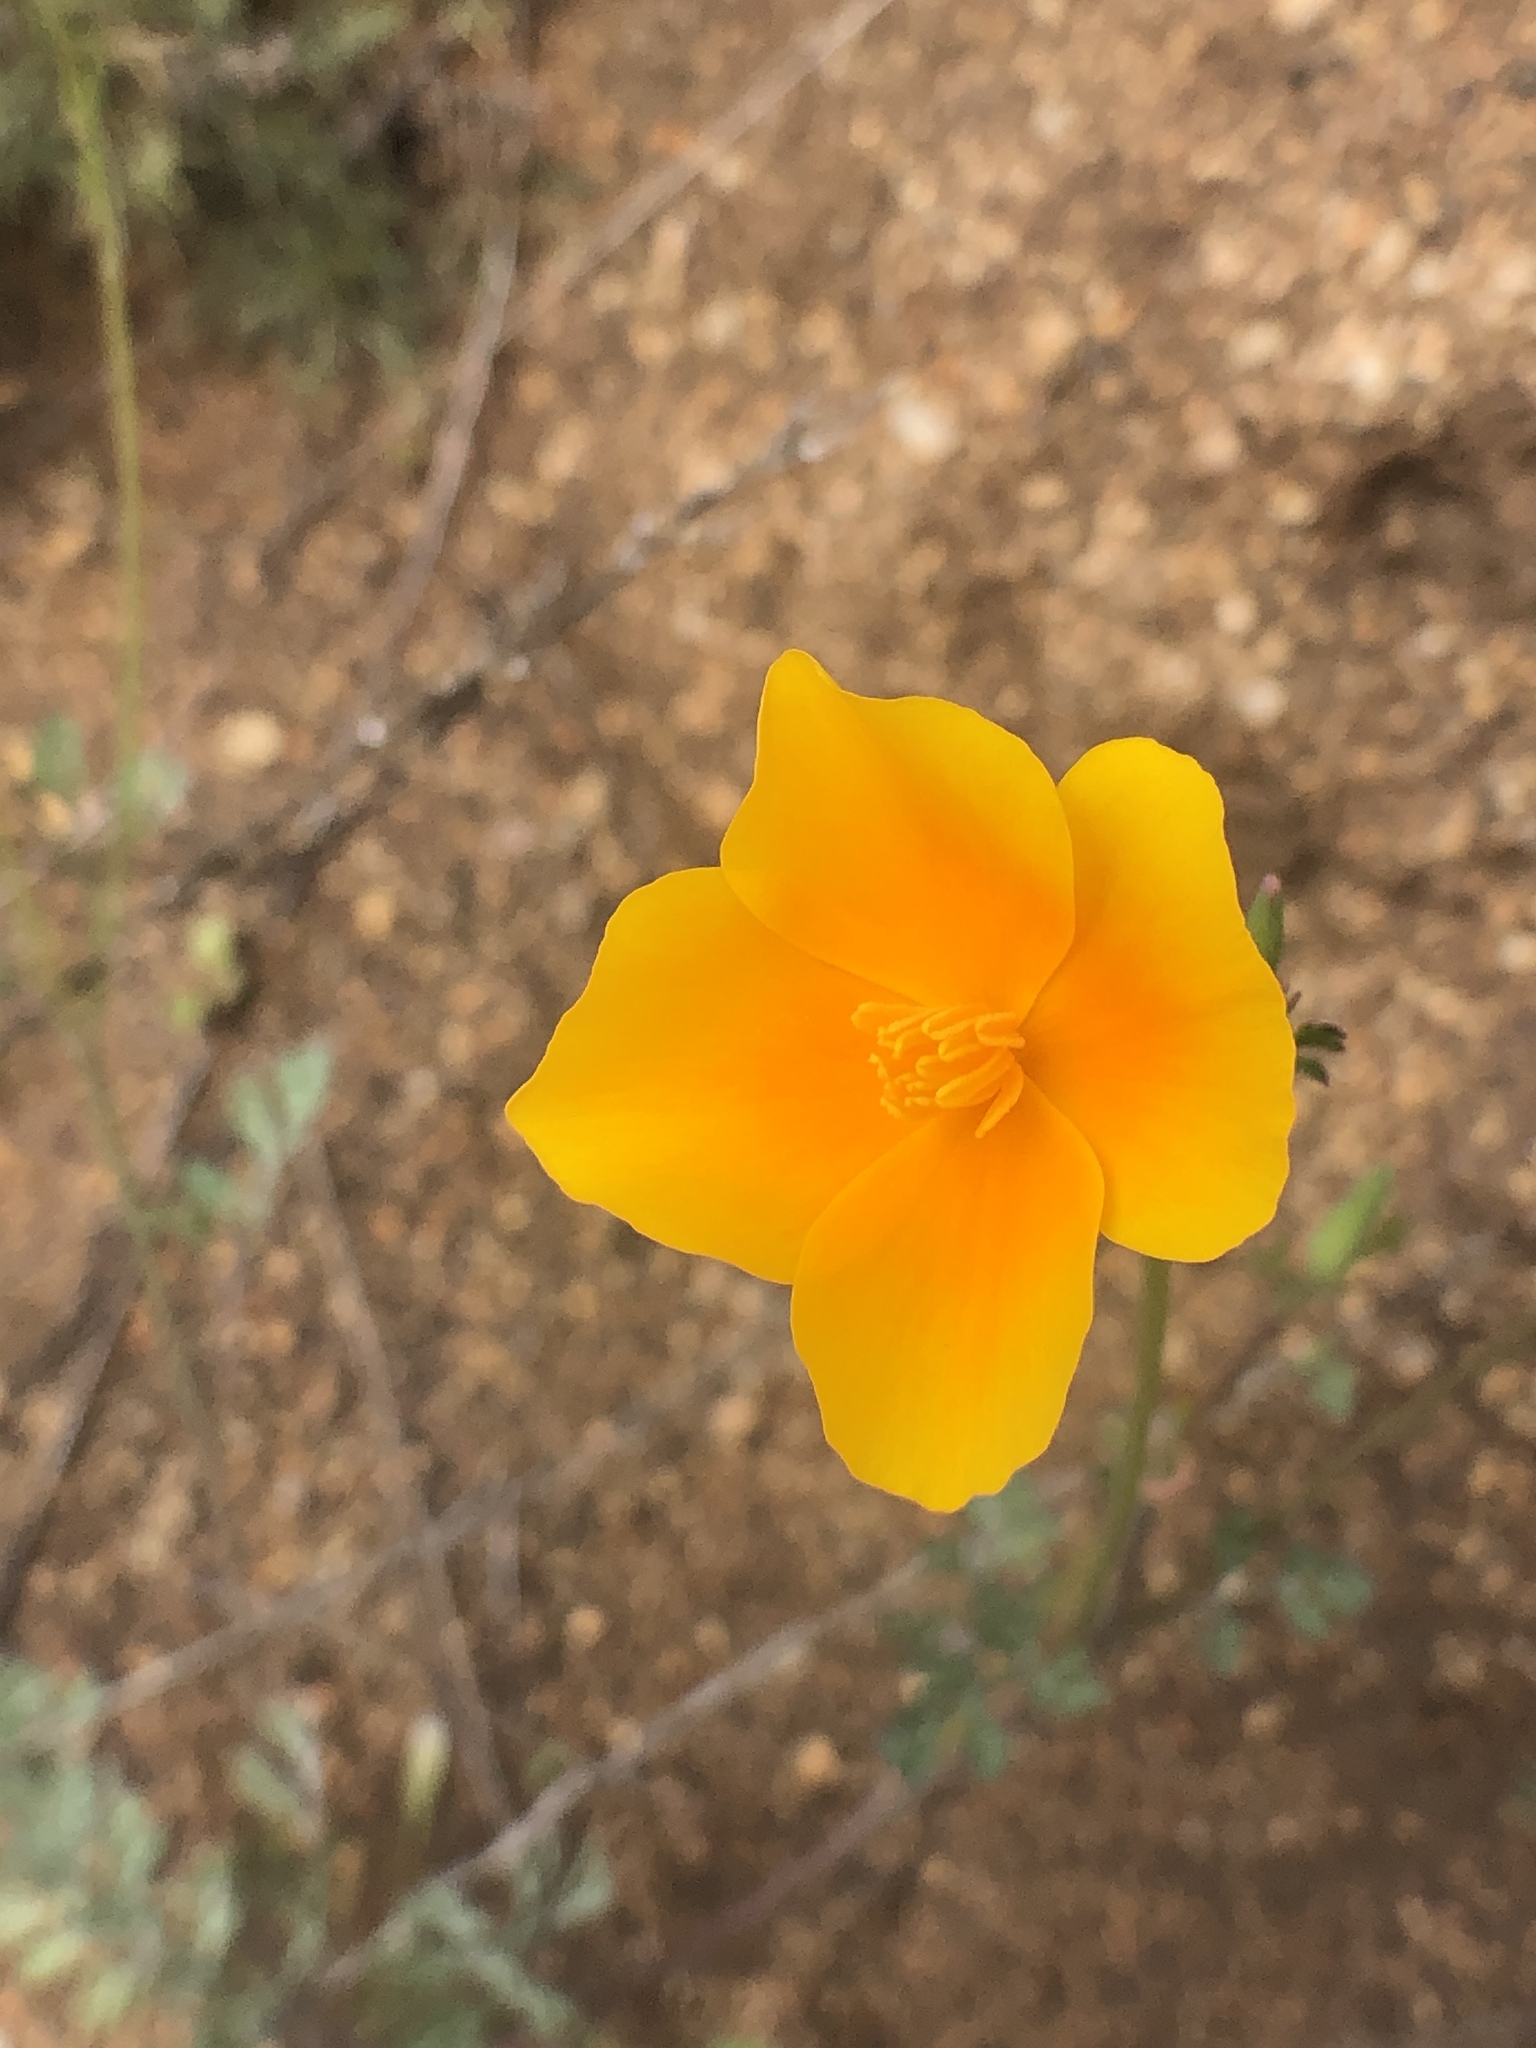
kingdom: Plantae
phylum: Tracheophyta
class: Magnoliopsida
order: Ranunculales
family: Papaveraceae
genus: Eschscholzia
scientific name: Eschscholzia californica
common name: California poppy
